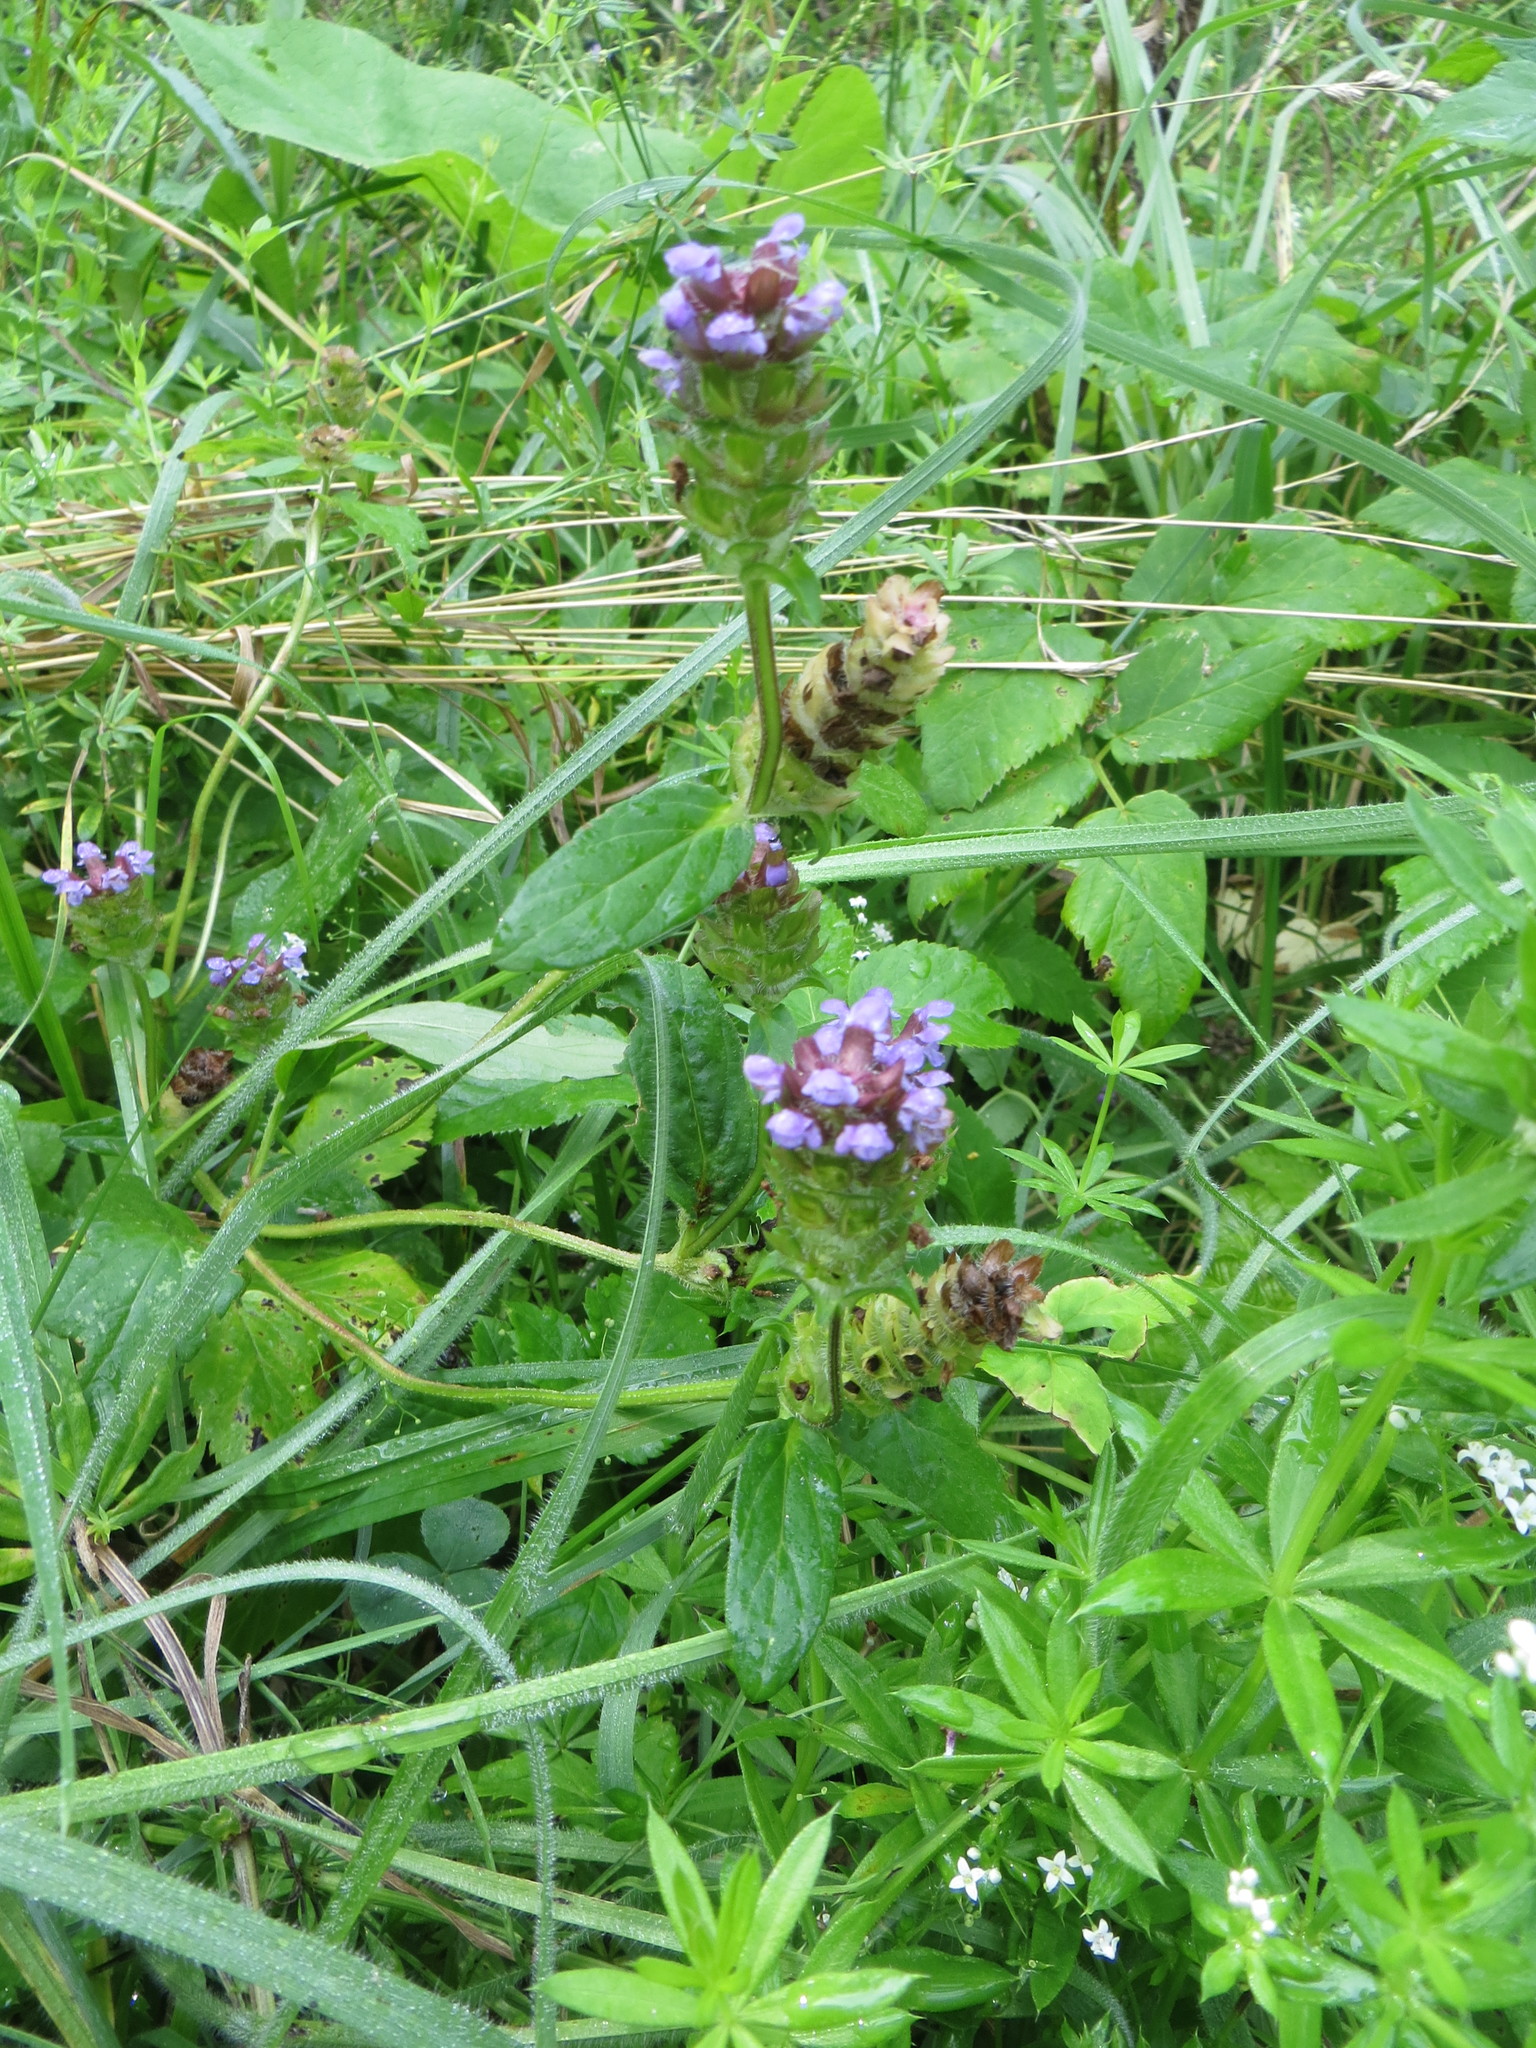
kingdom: Plantae
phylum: Tracheophyta
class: Magnoliopsida
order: Lamiales
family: Lamiaceae
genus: Prunella
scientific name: Prunella vulgaris
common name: Heal-all
